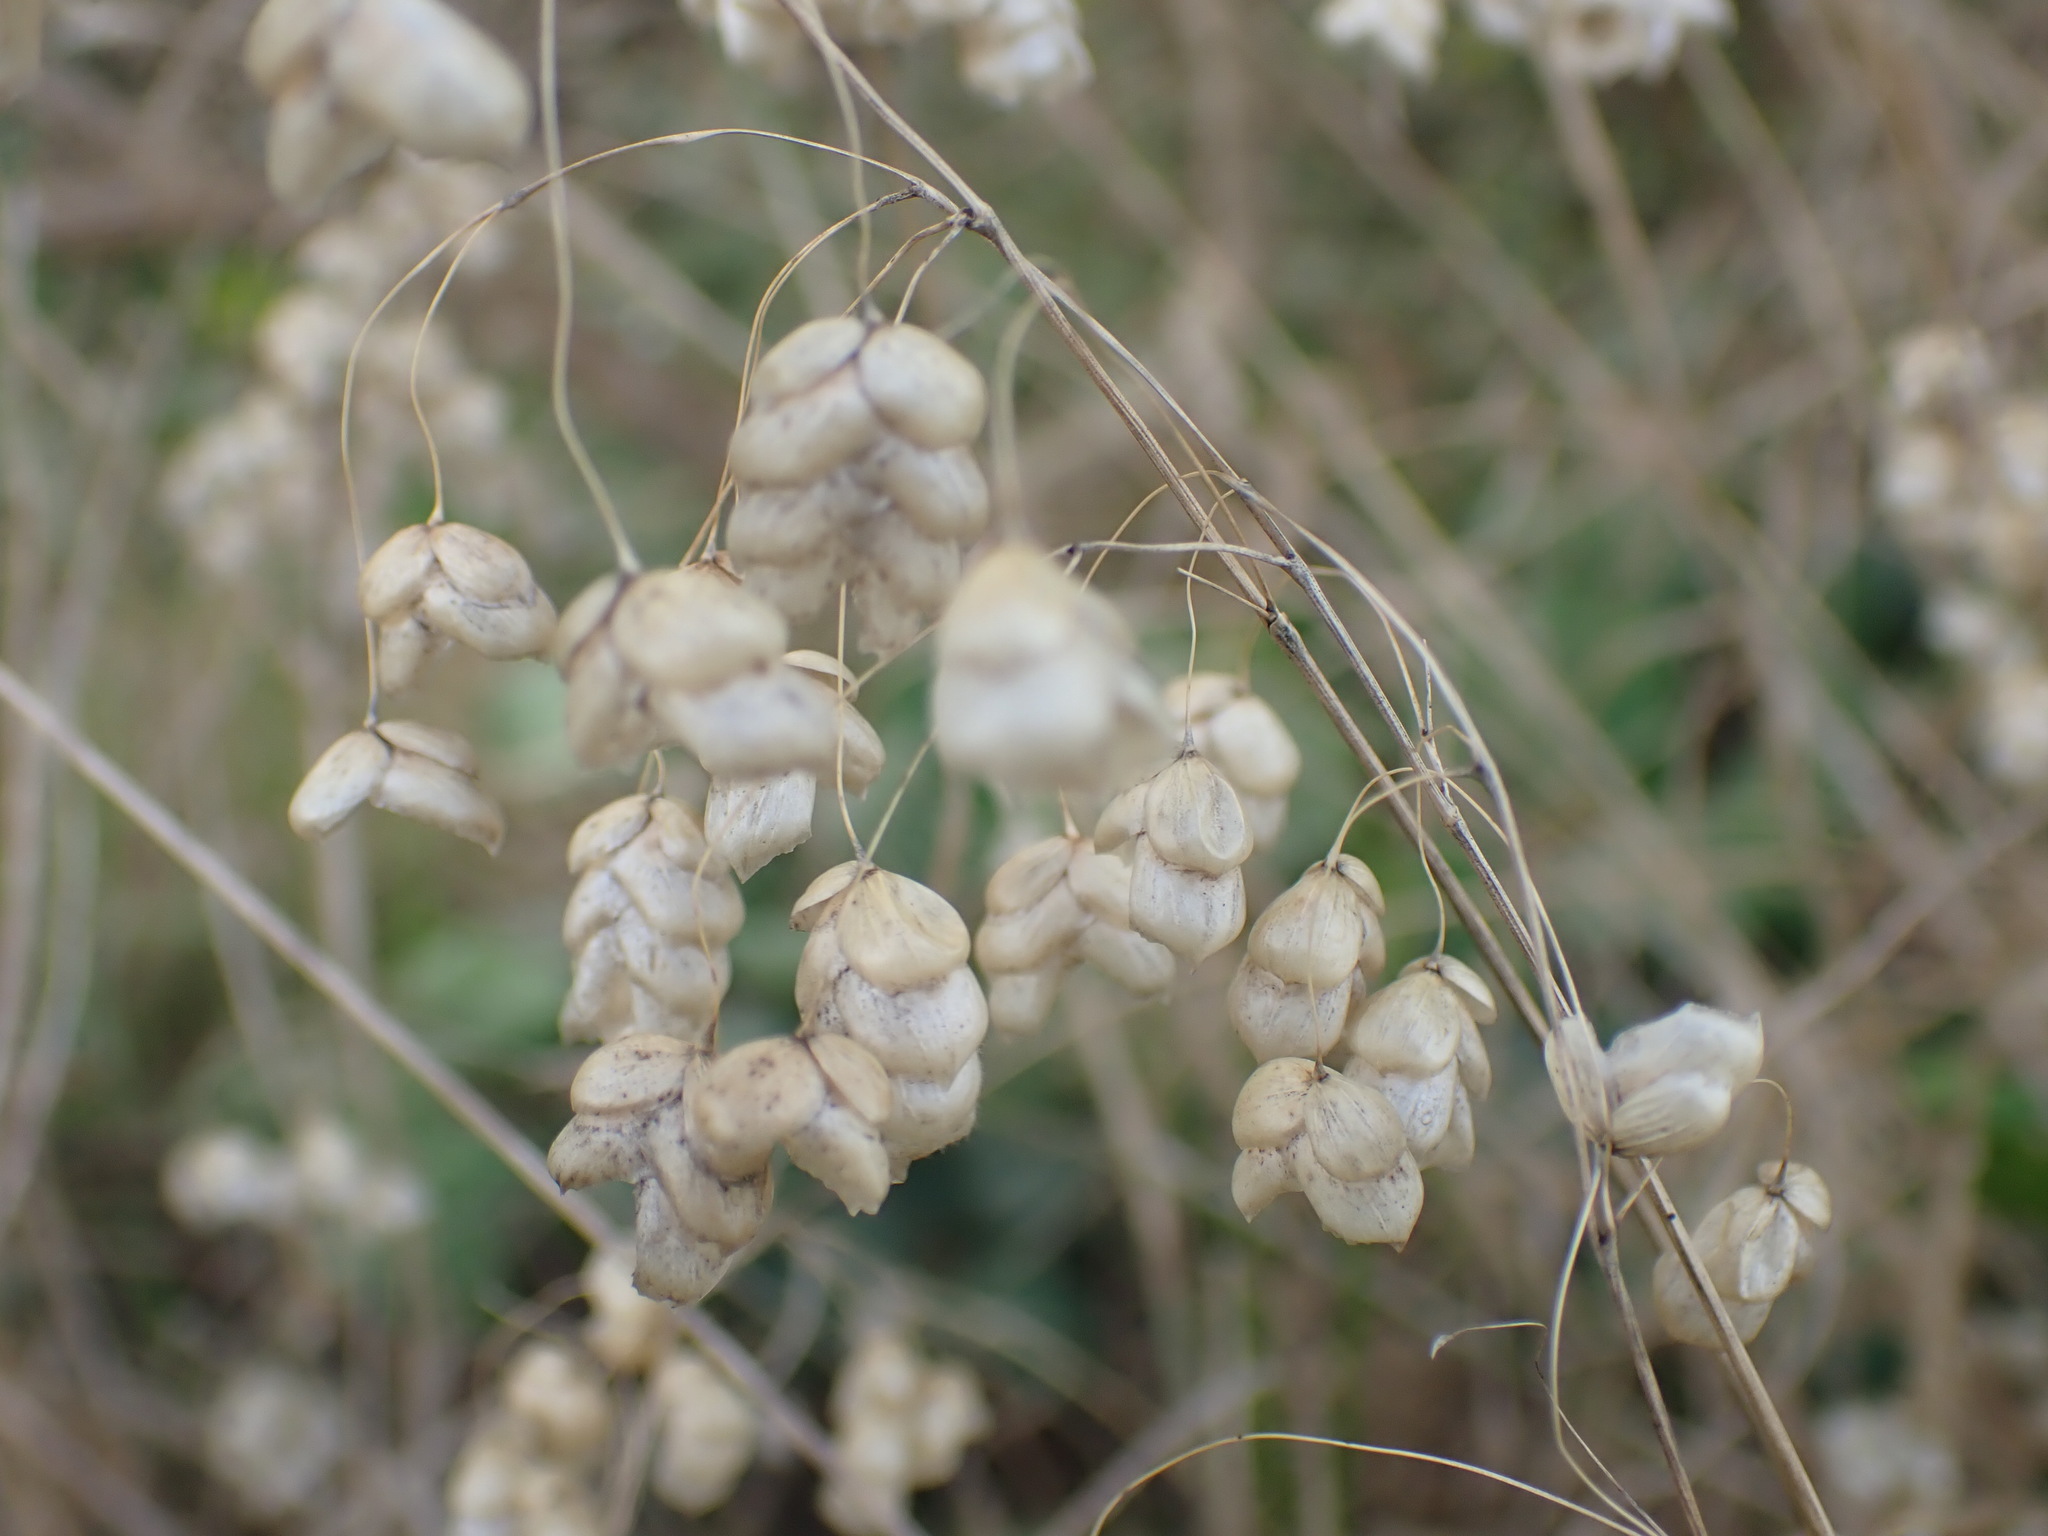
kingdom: Plantae
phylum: Tracheophyta
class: Liliopsida
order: Poales
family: Poaceae
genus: Briza
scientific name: Briza maxima
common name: Big quakinggrass
